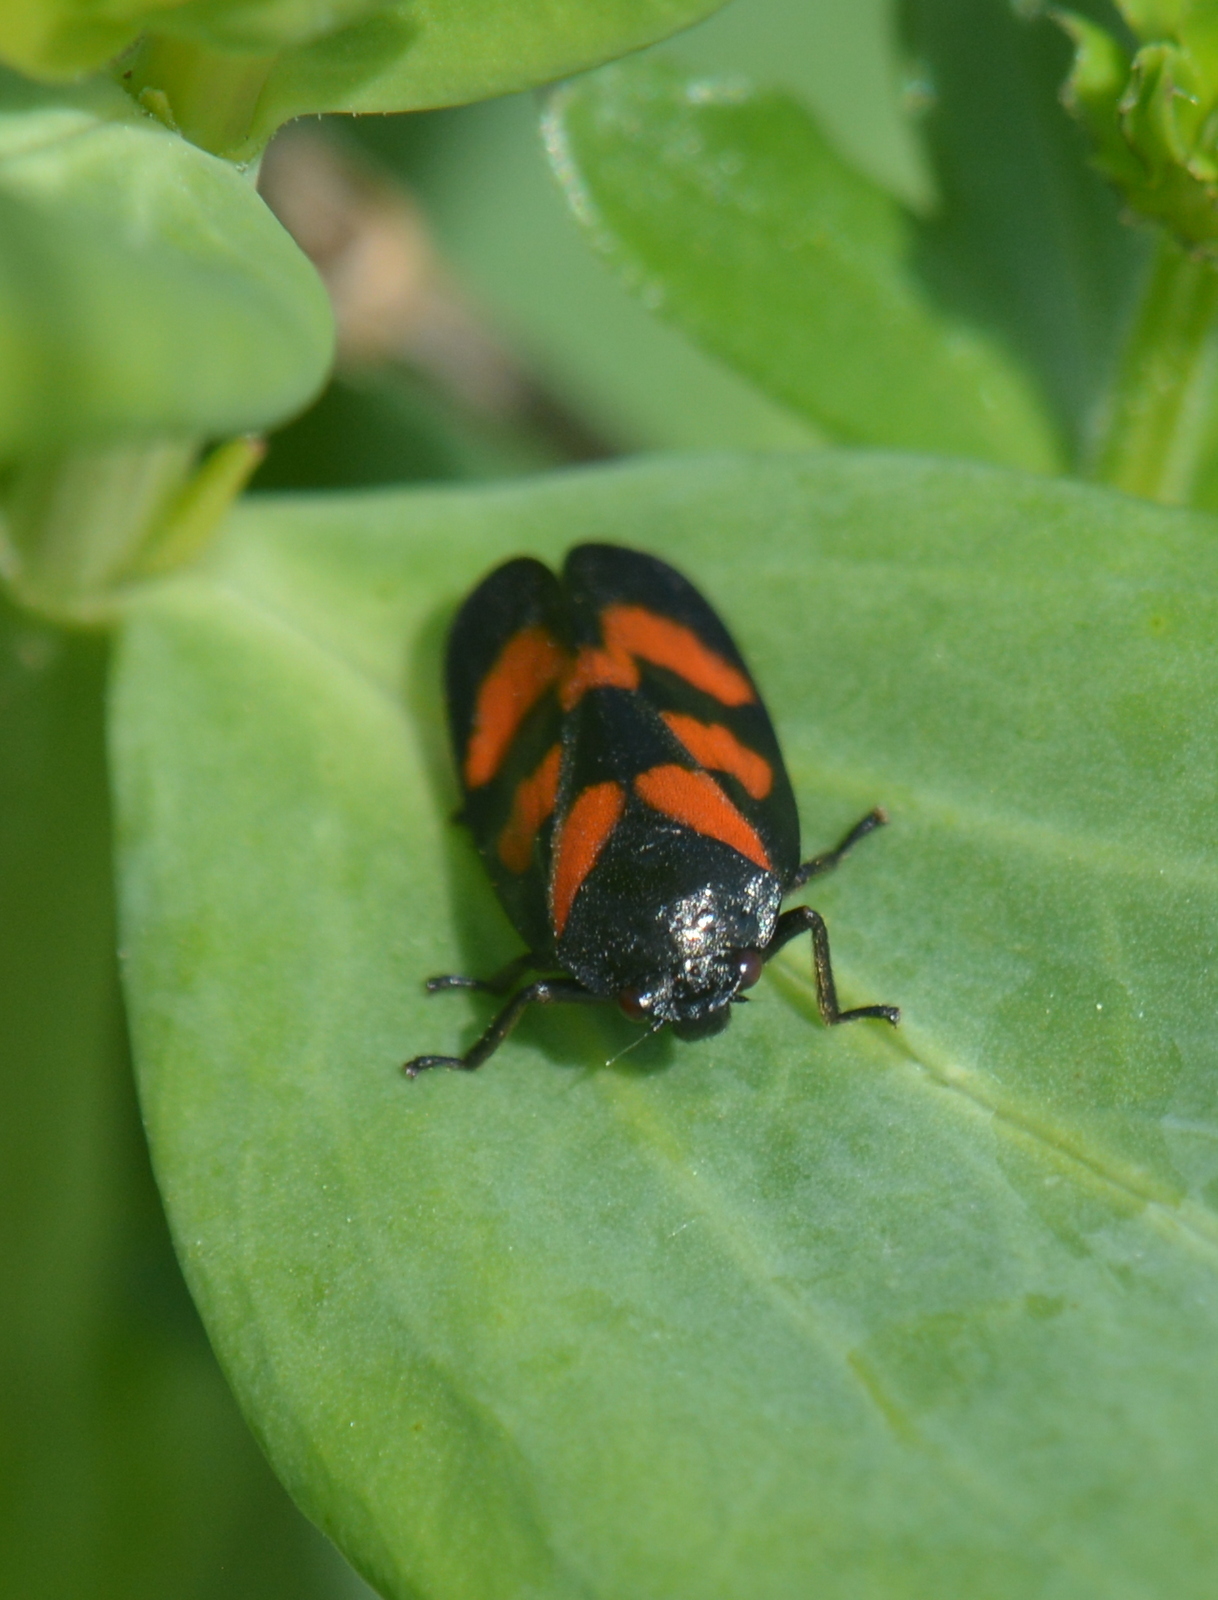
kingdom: Animalia
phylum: Arthropoda
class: Insecta
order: Hemiptera
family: Cercopidae
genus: Cercopis
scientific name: Cercopis vulnerata
